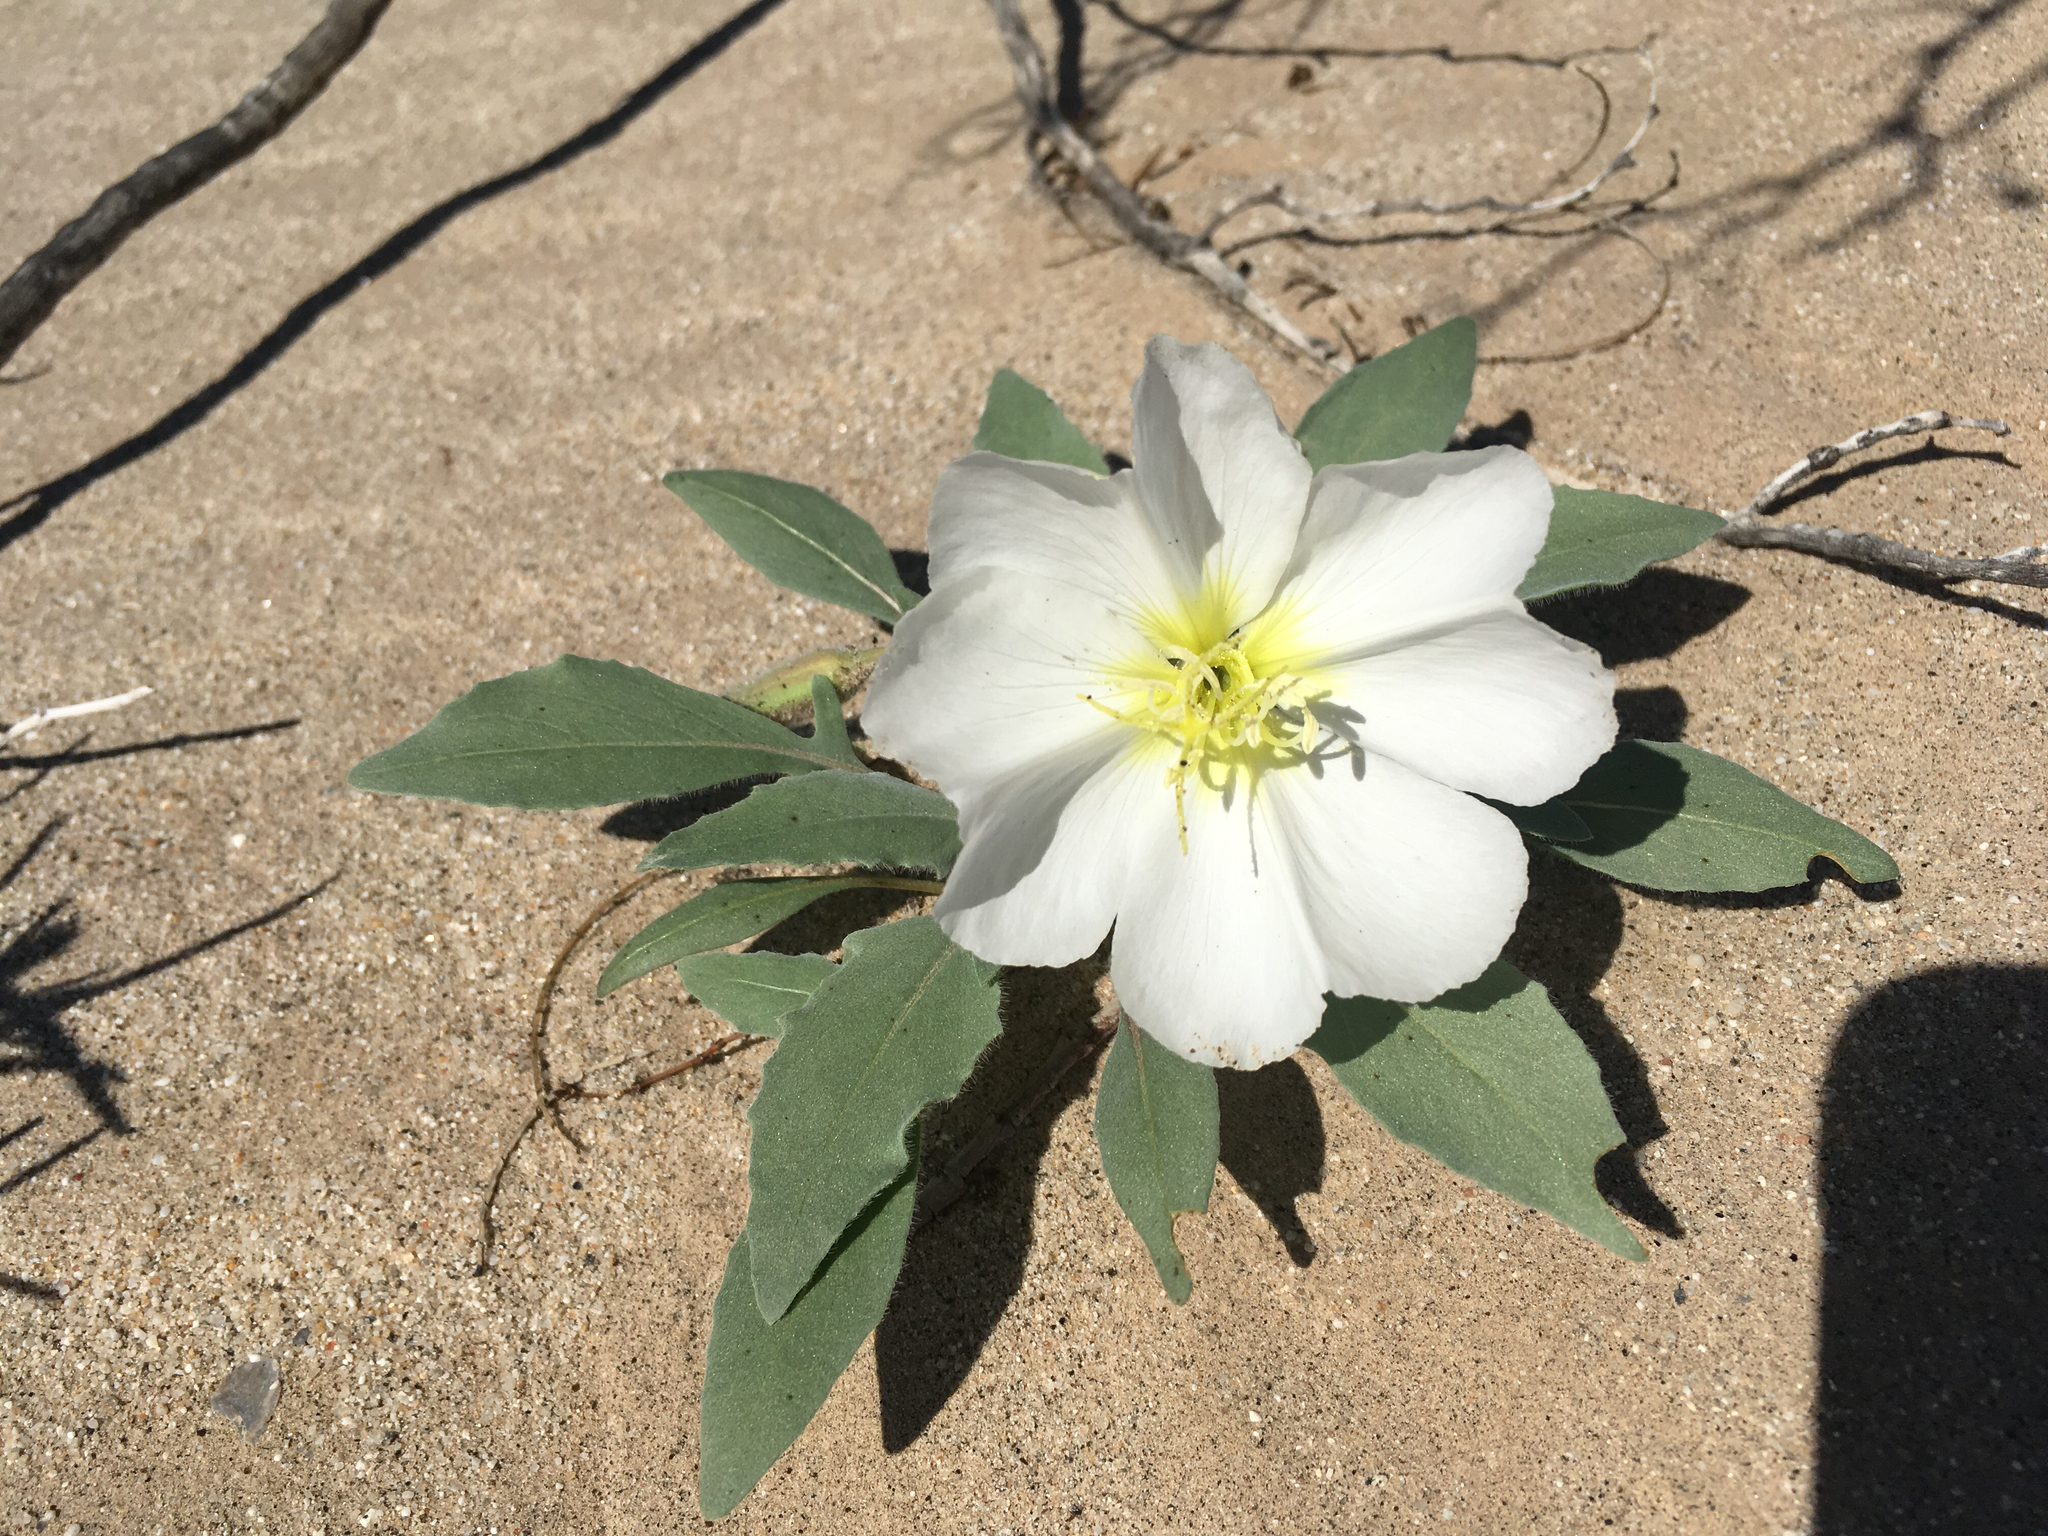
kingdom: Plantae
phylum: Tracheophyta
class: Magnoliopsida
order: Myrtales
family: Onagraceae
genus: Oenothera
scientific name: Oenothera deltoides
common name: Basket evening-primrose
